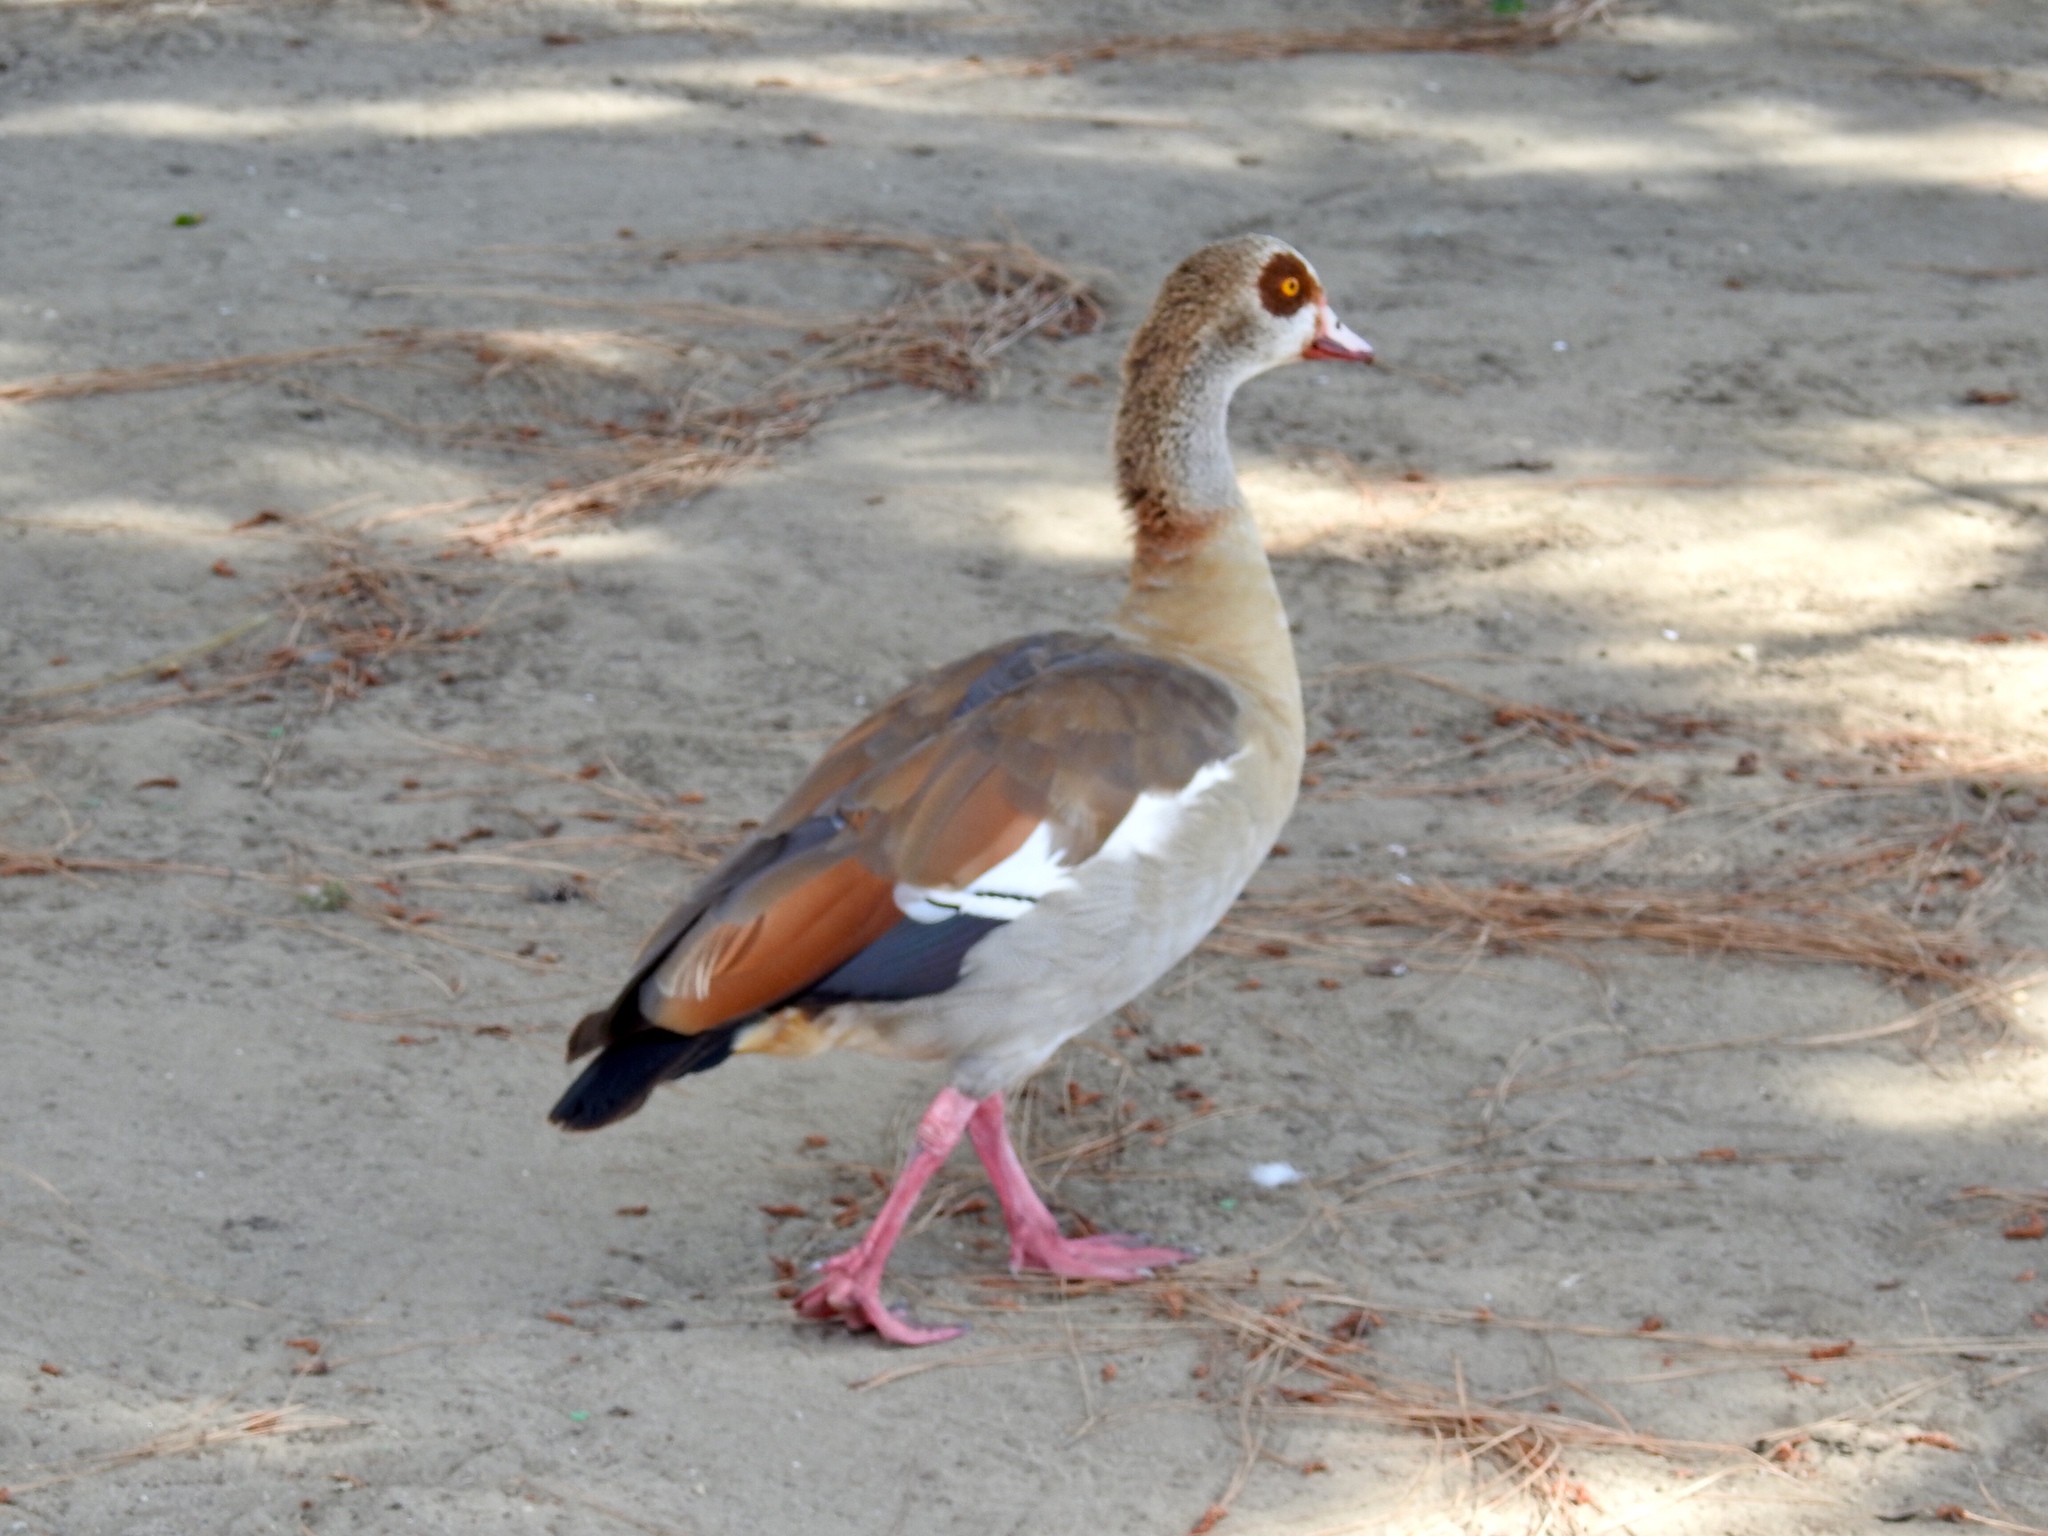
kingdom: Animalia
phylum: Chordata
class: Aves
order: Anseriformes
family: Anatidae
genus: Alopochen
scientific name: Alopochen aegyptiaca
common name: Egyptian goose
